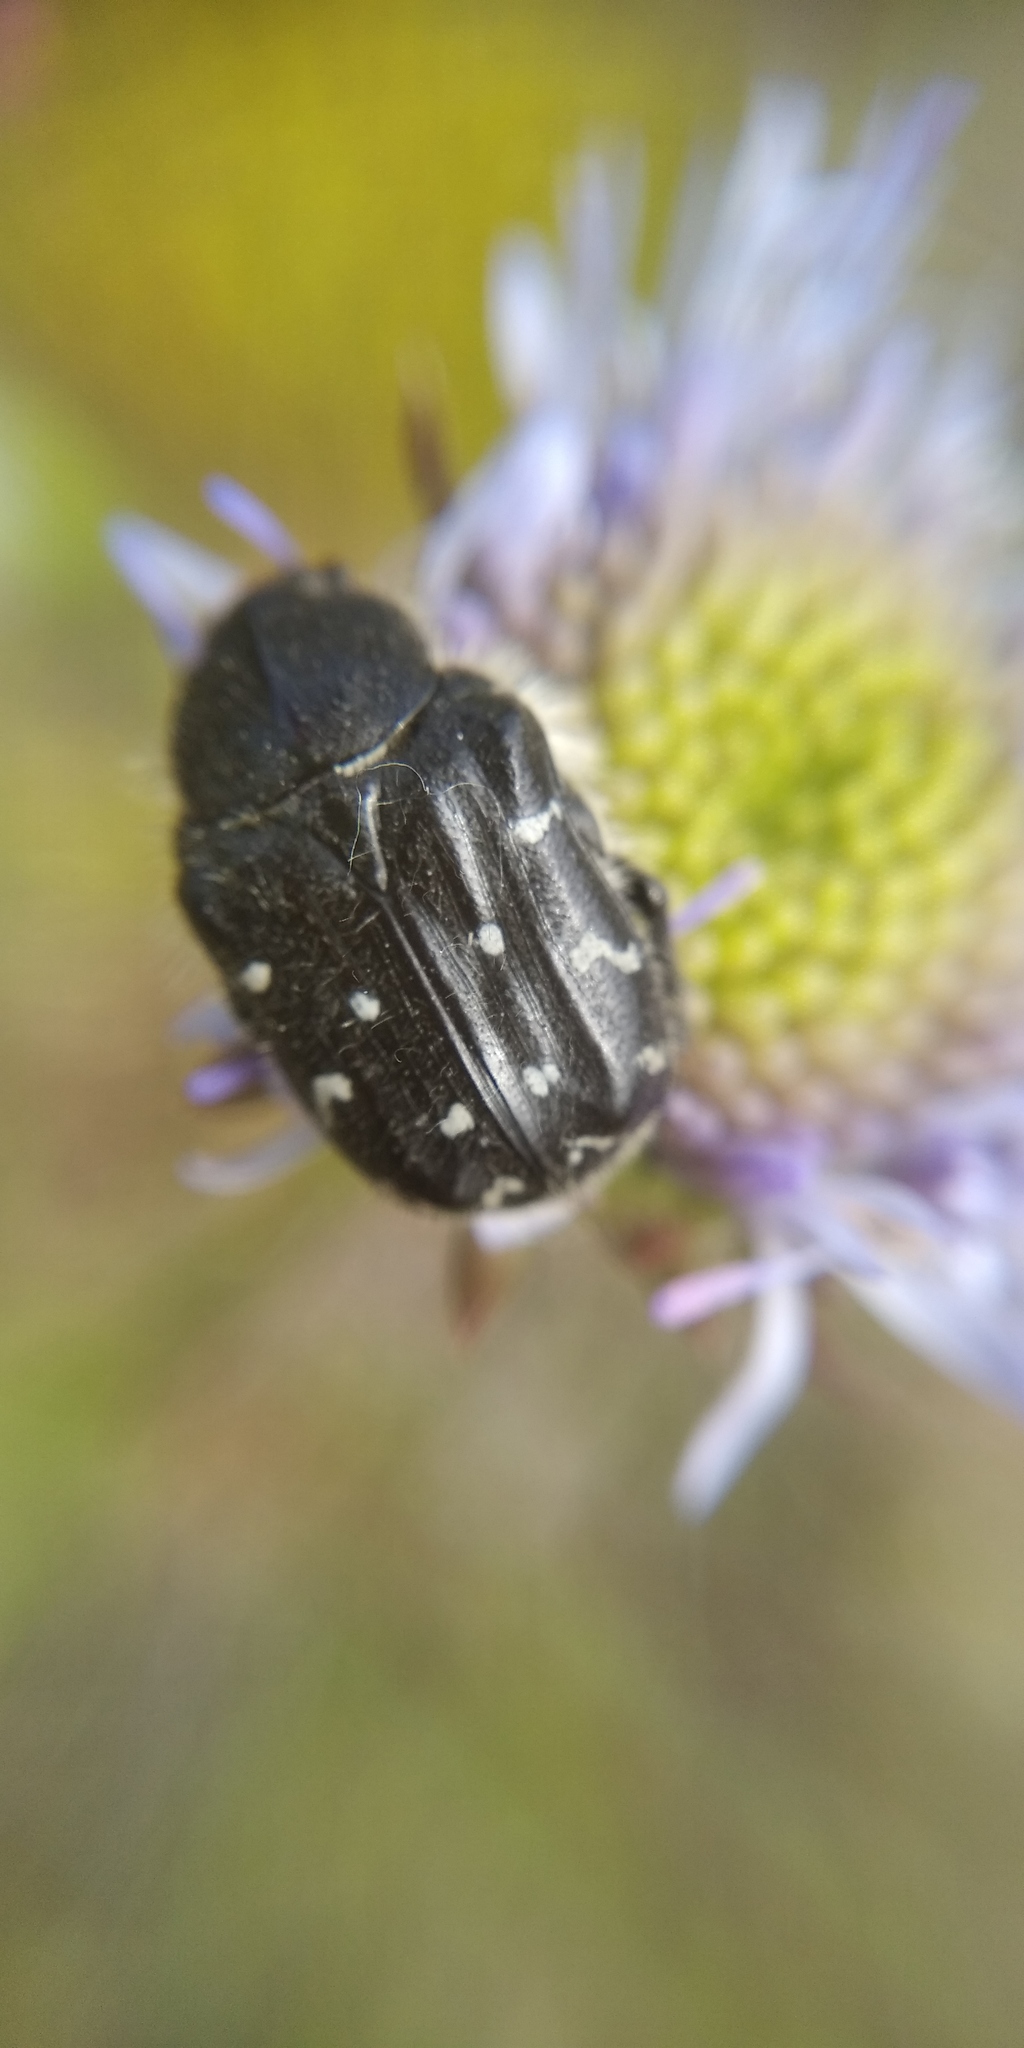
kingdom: Animalia
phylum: Arthropoda
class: Insecta
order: Coleoptera
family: Scarabaeidae
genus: Tropinota
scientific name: Tropinota hirta
